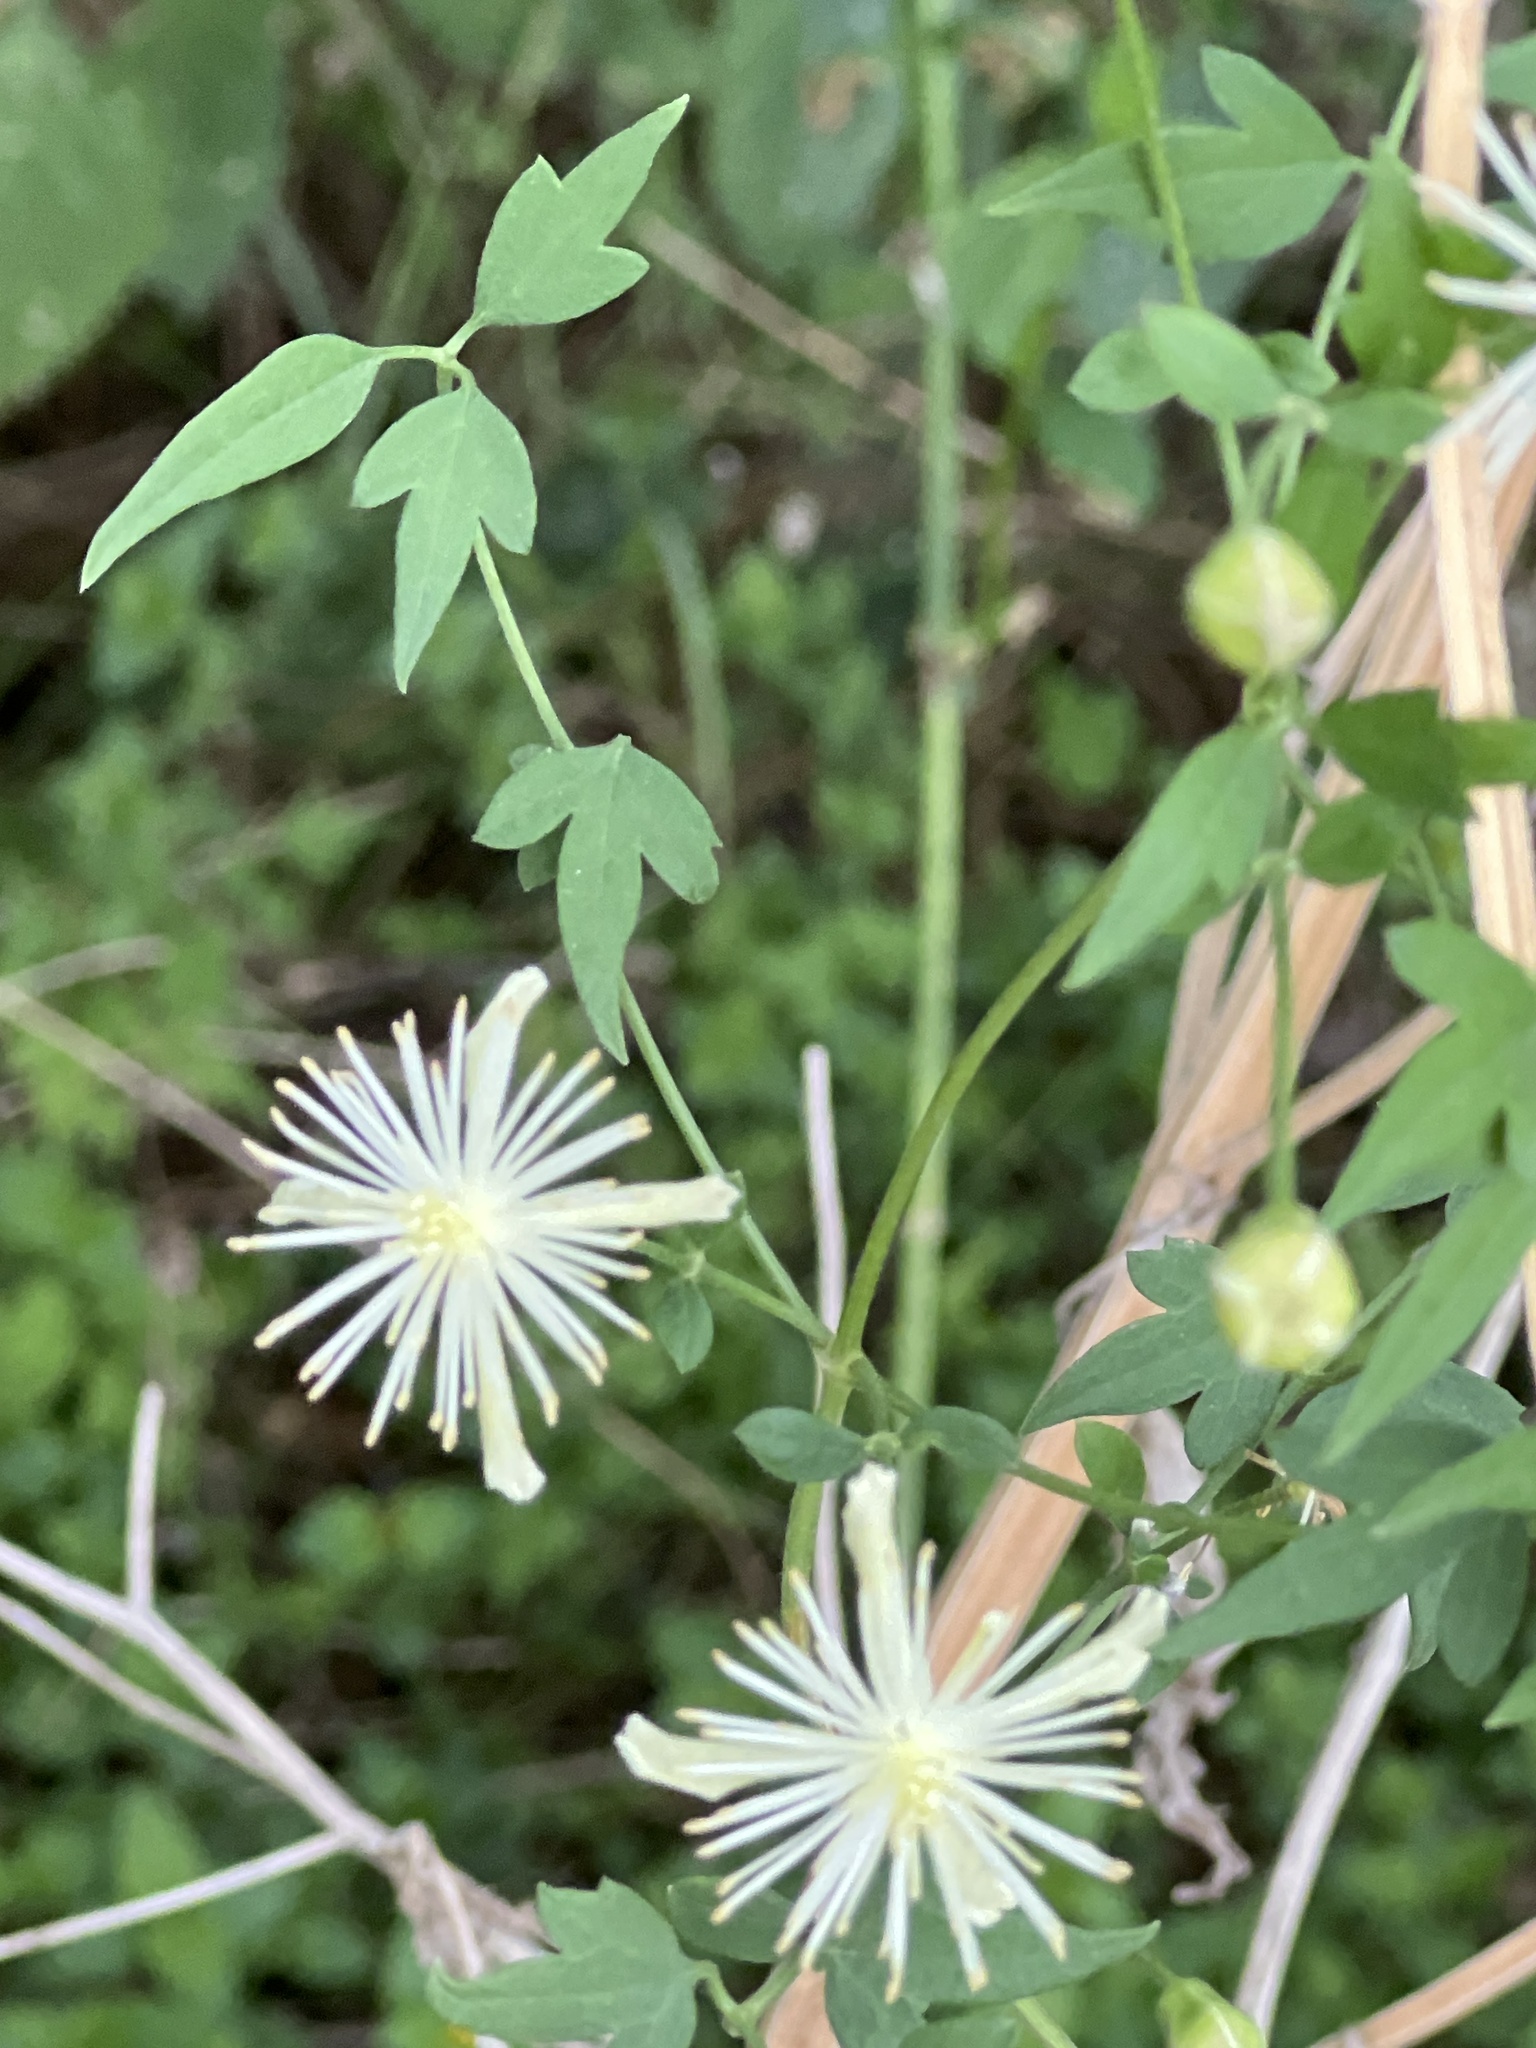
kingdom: Plantae
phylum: Tracheophyta
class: Magnoliopsida
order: Ranunculales
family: Ranunculaceae
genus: Clematis
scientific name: Clematis drummondii
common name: Texas virgin's bower
